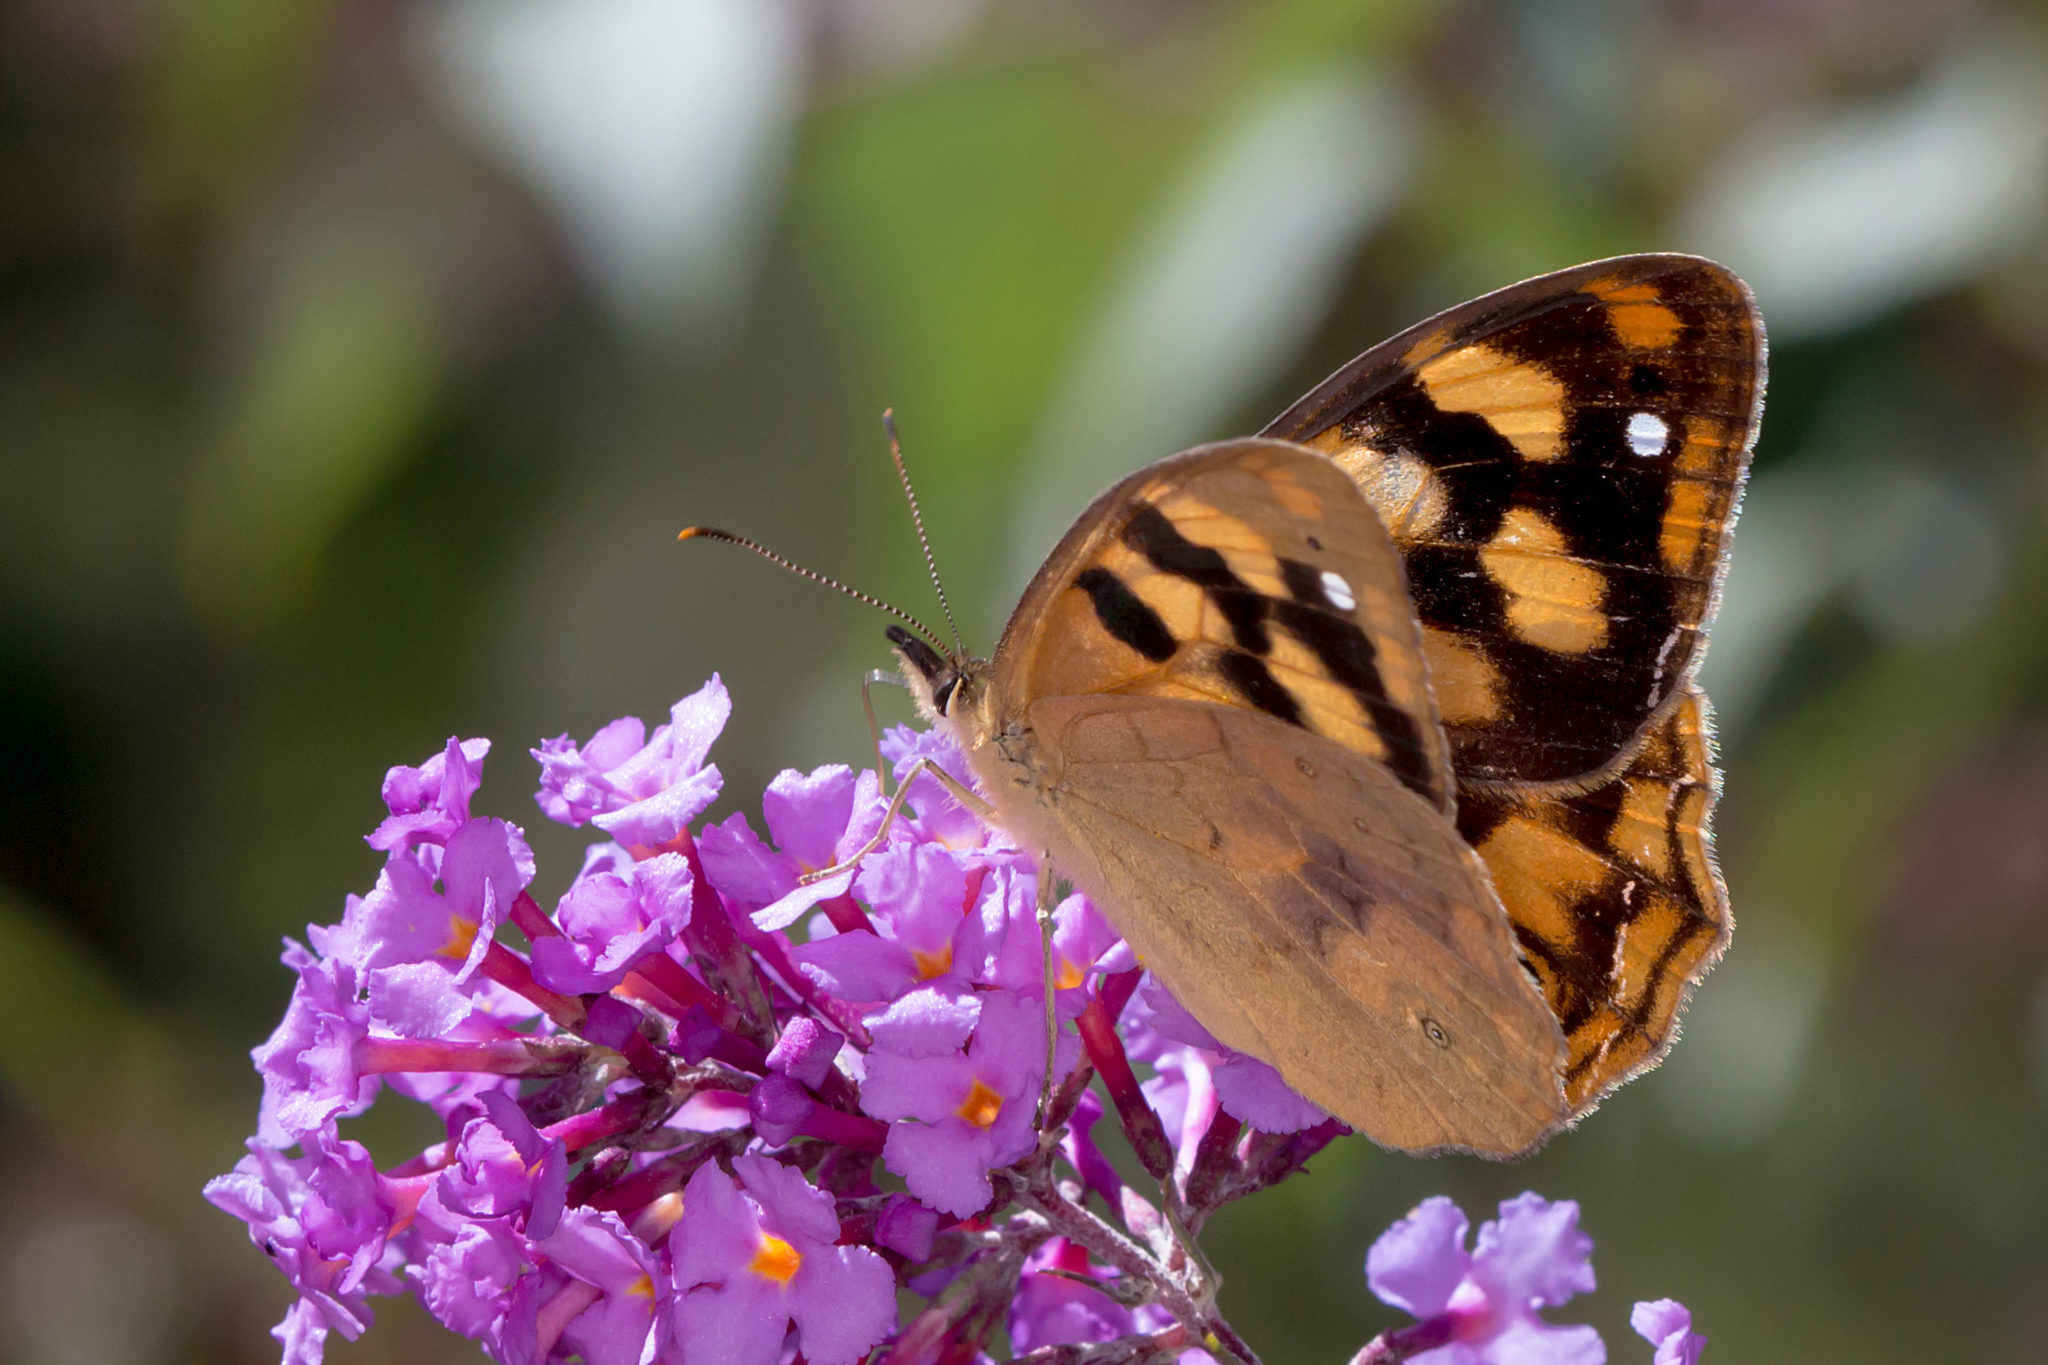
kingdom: Animalia
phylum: Arthropoda
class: Insecta
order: Lepidoptera
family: Nymphalidae
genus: Heteronympha
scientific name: Heteronympha solandri
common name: Solander's brown
